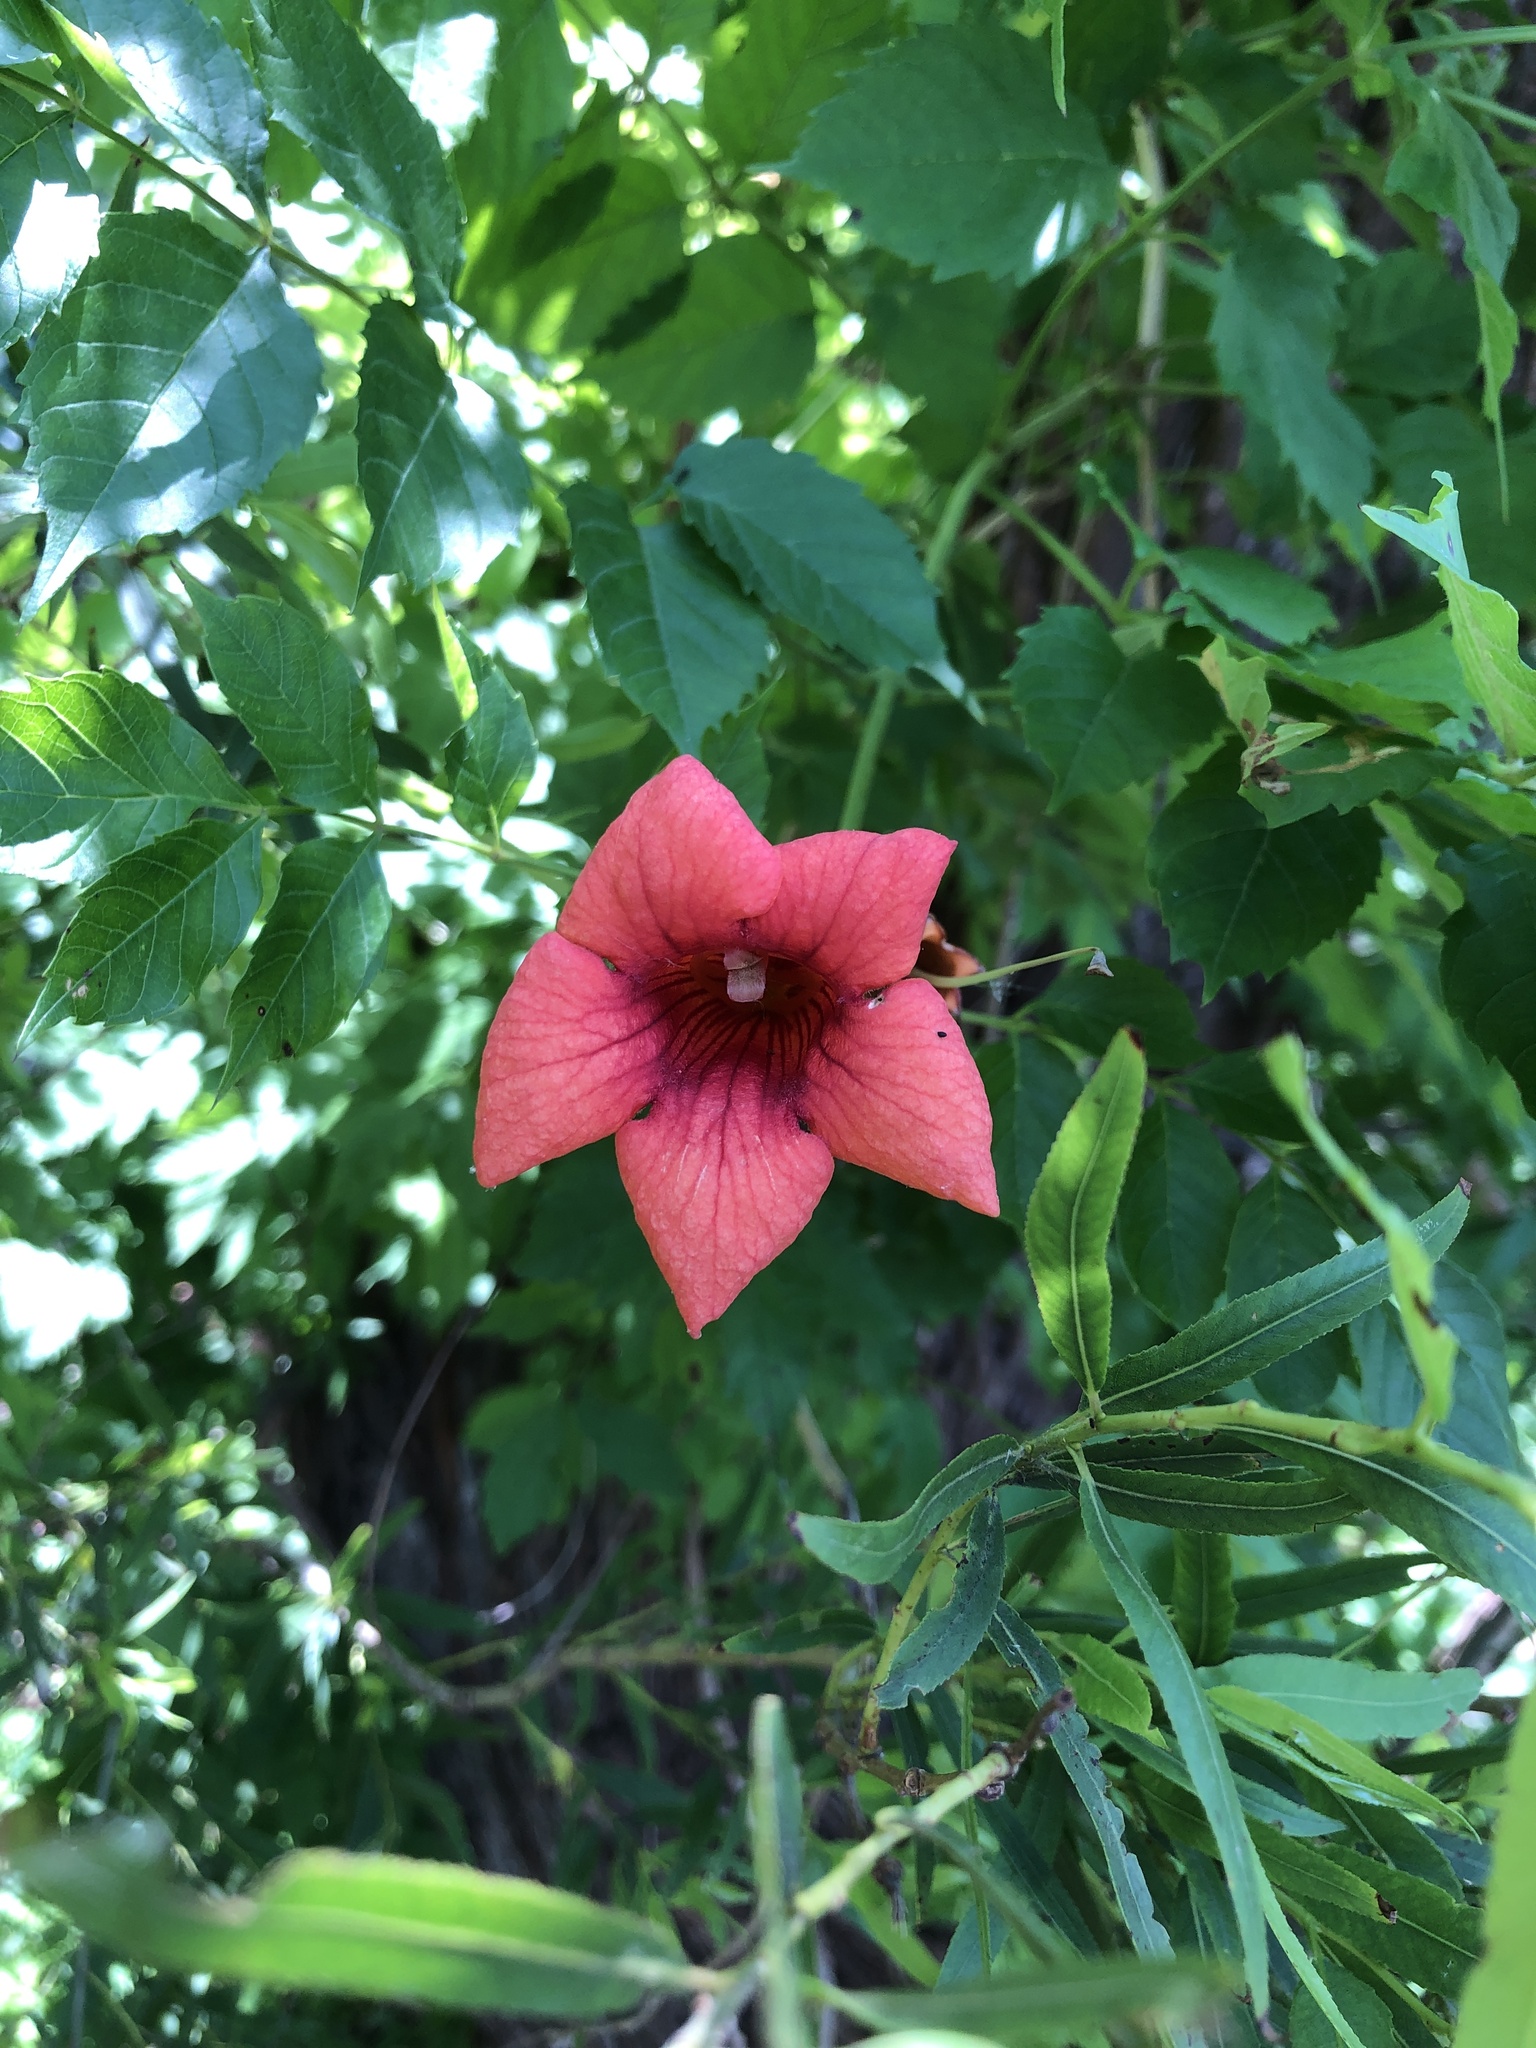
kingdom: Plantae
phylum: Tracheophyta
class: Magnoliopsida
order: Lamiales
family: Bignoniaceae
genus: Campsis
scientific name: Campsis radicans
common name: Trumpet-creeper
